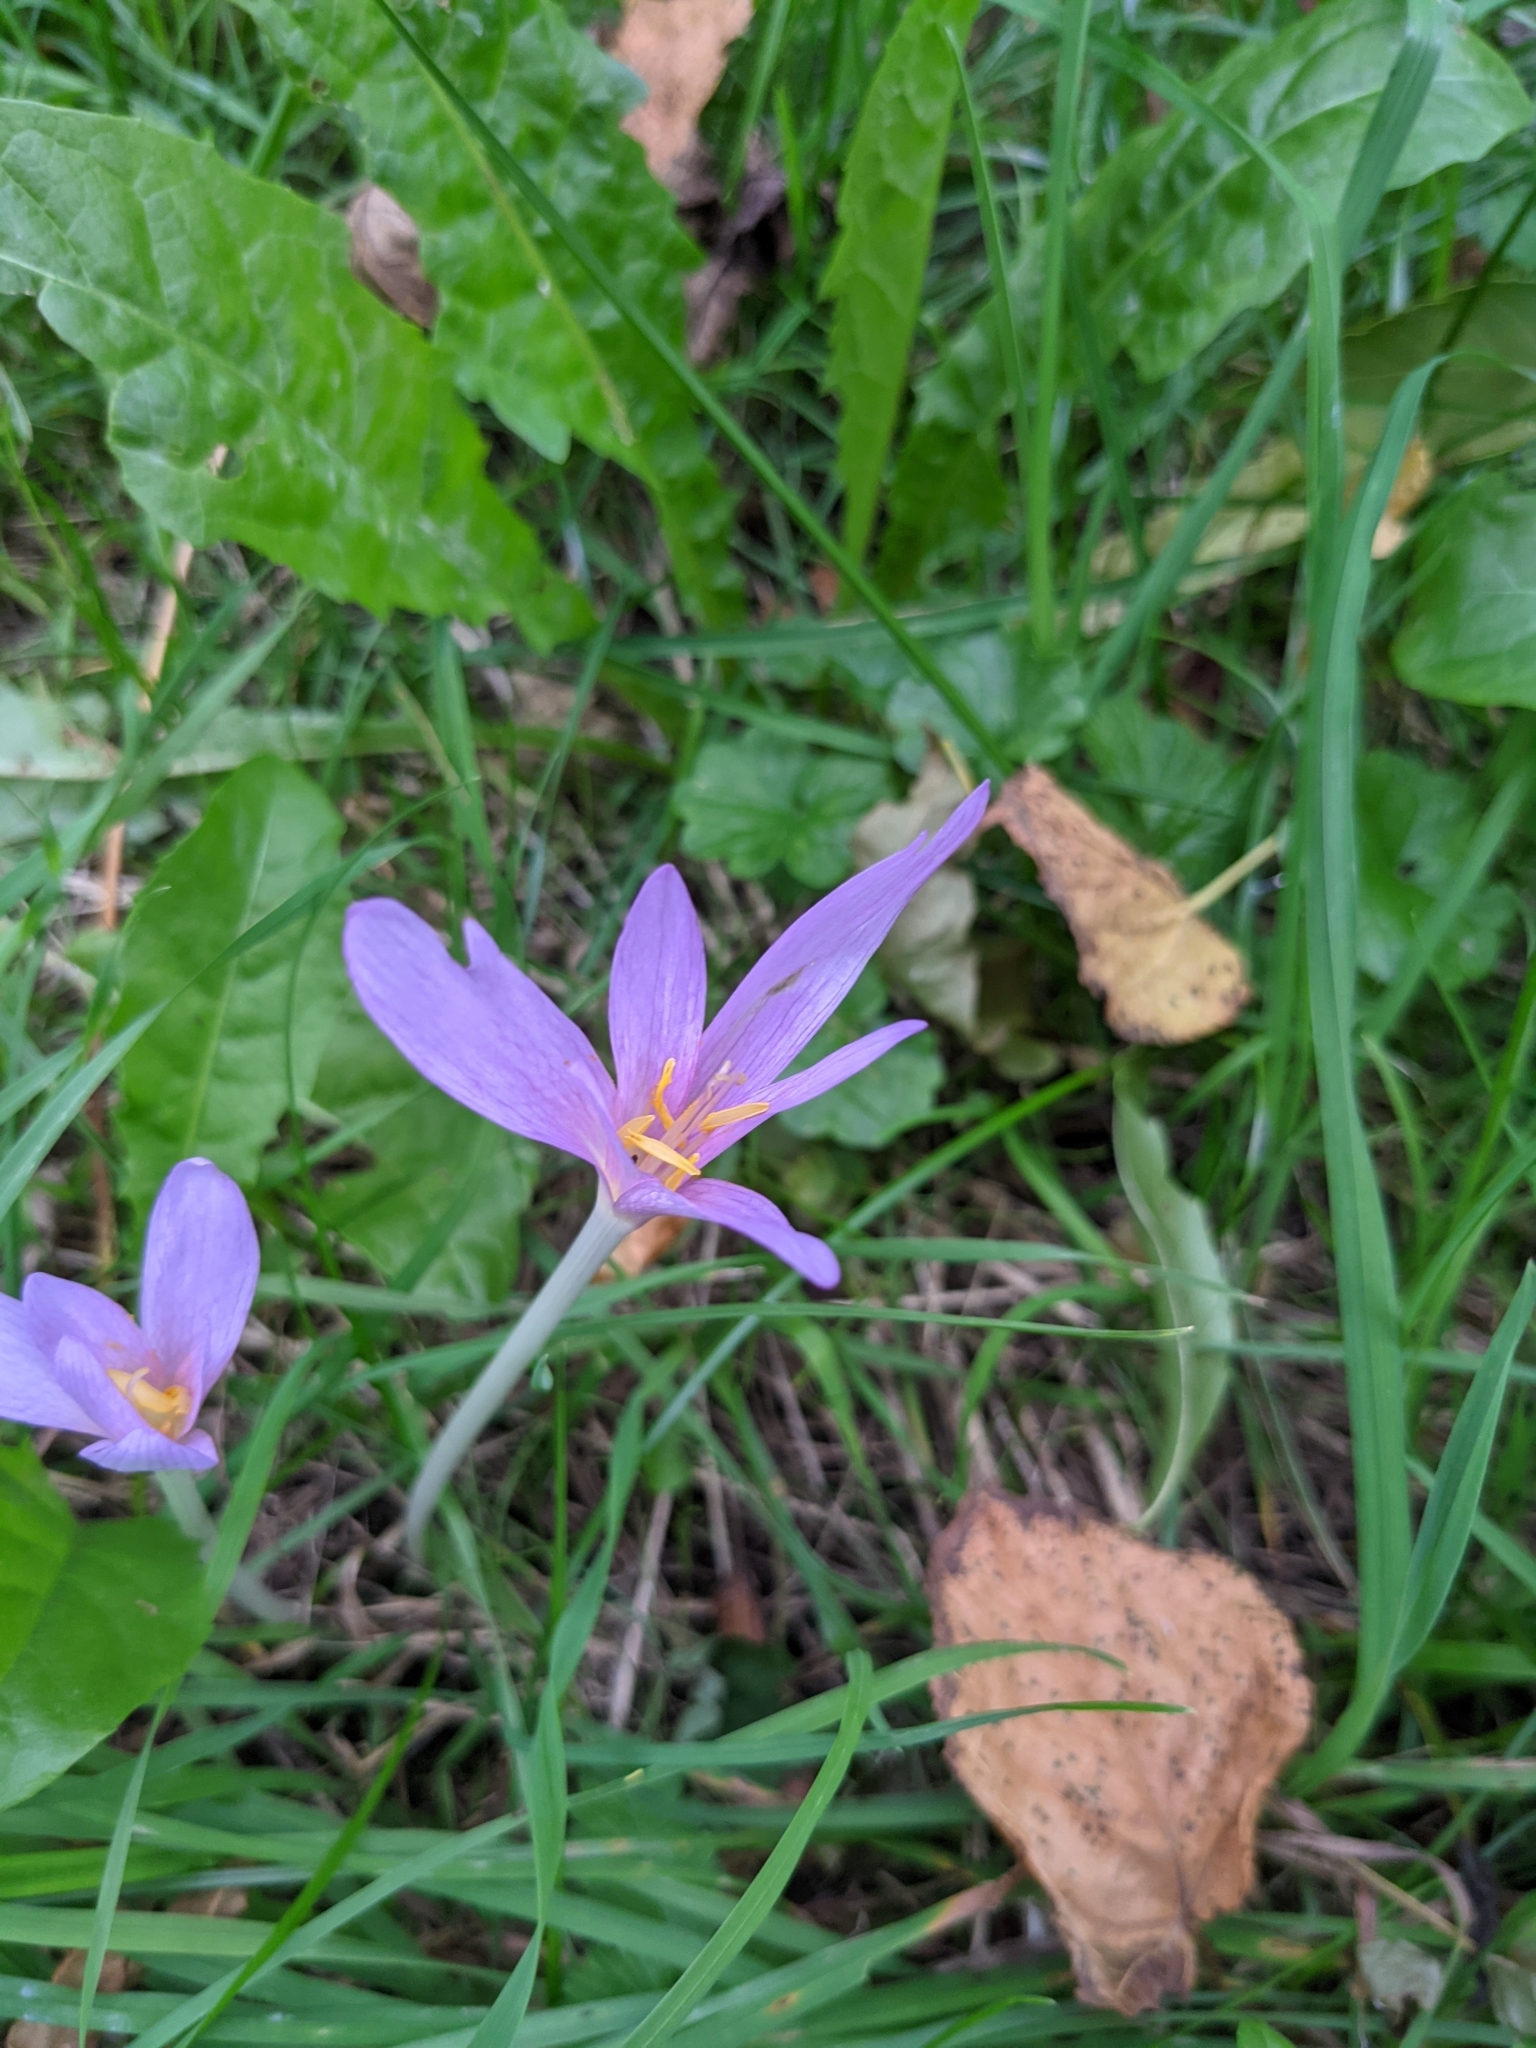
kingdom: Plantae
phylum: Tracheophyta
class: Liliopsida
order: Liliales
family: Colchicaceae
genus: Colchicum
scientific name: Colchicum autumnale
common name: Autumn crocus
